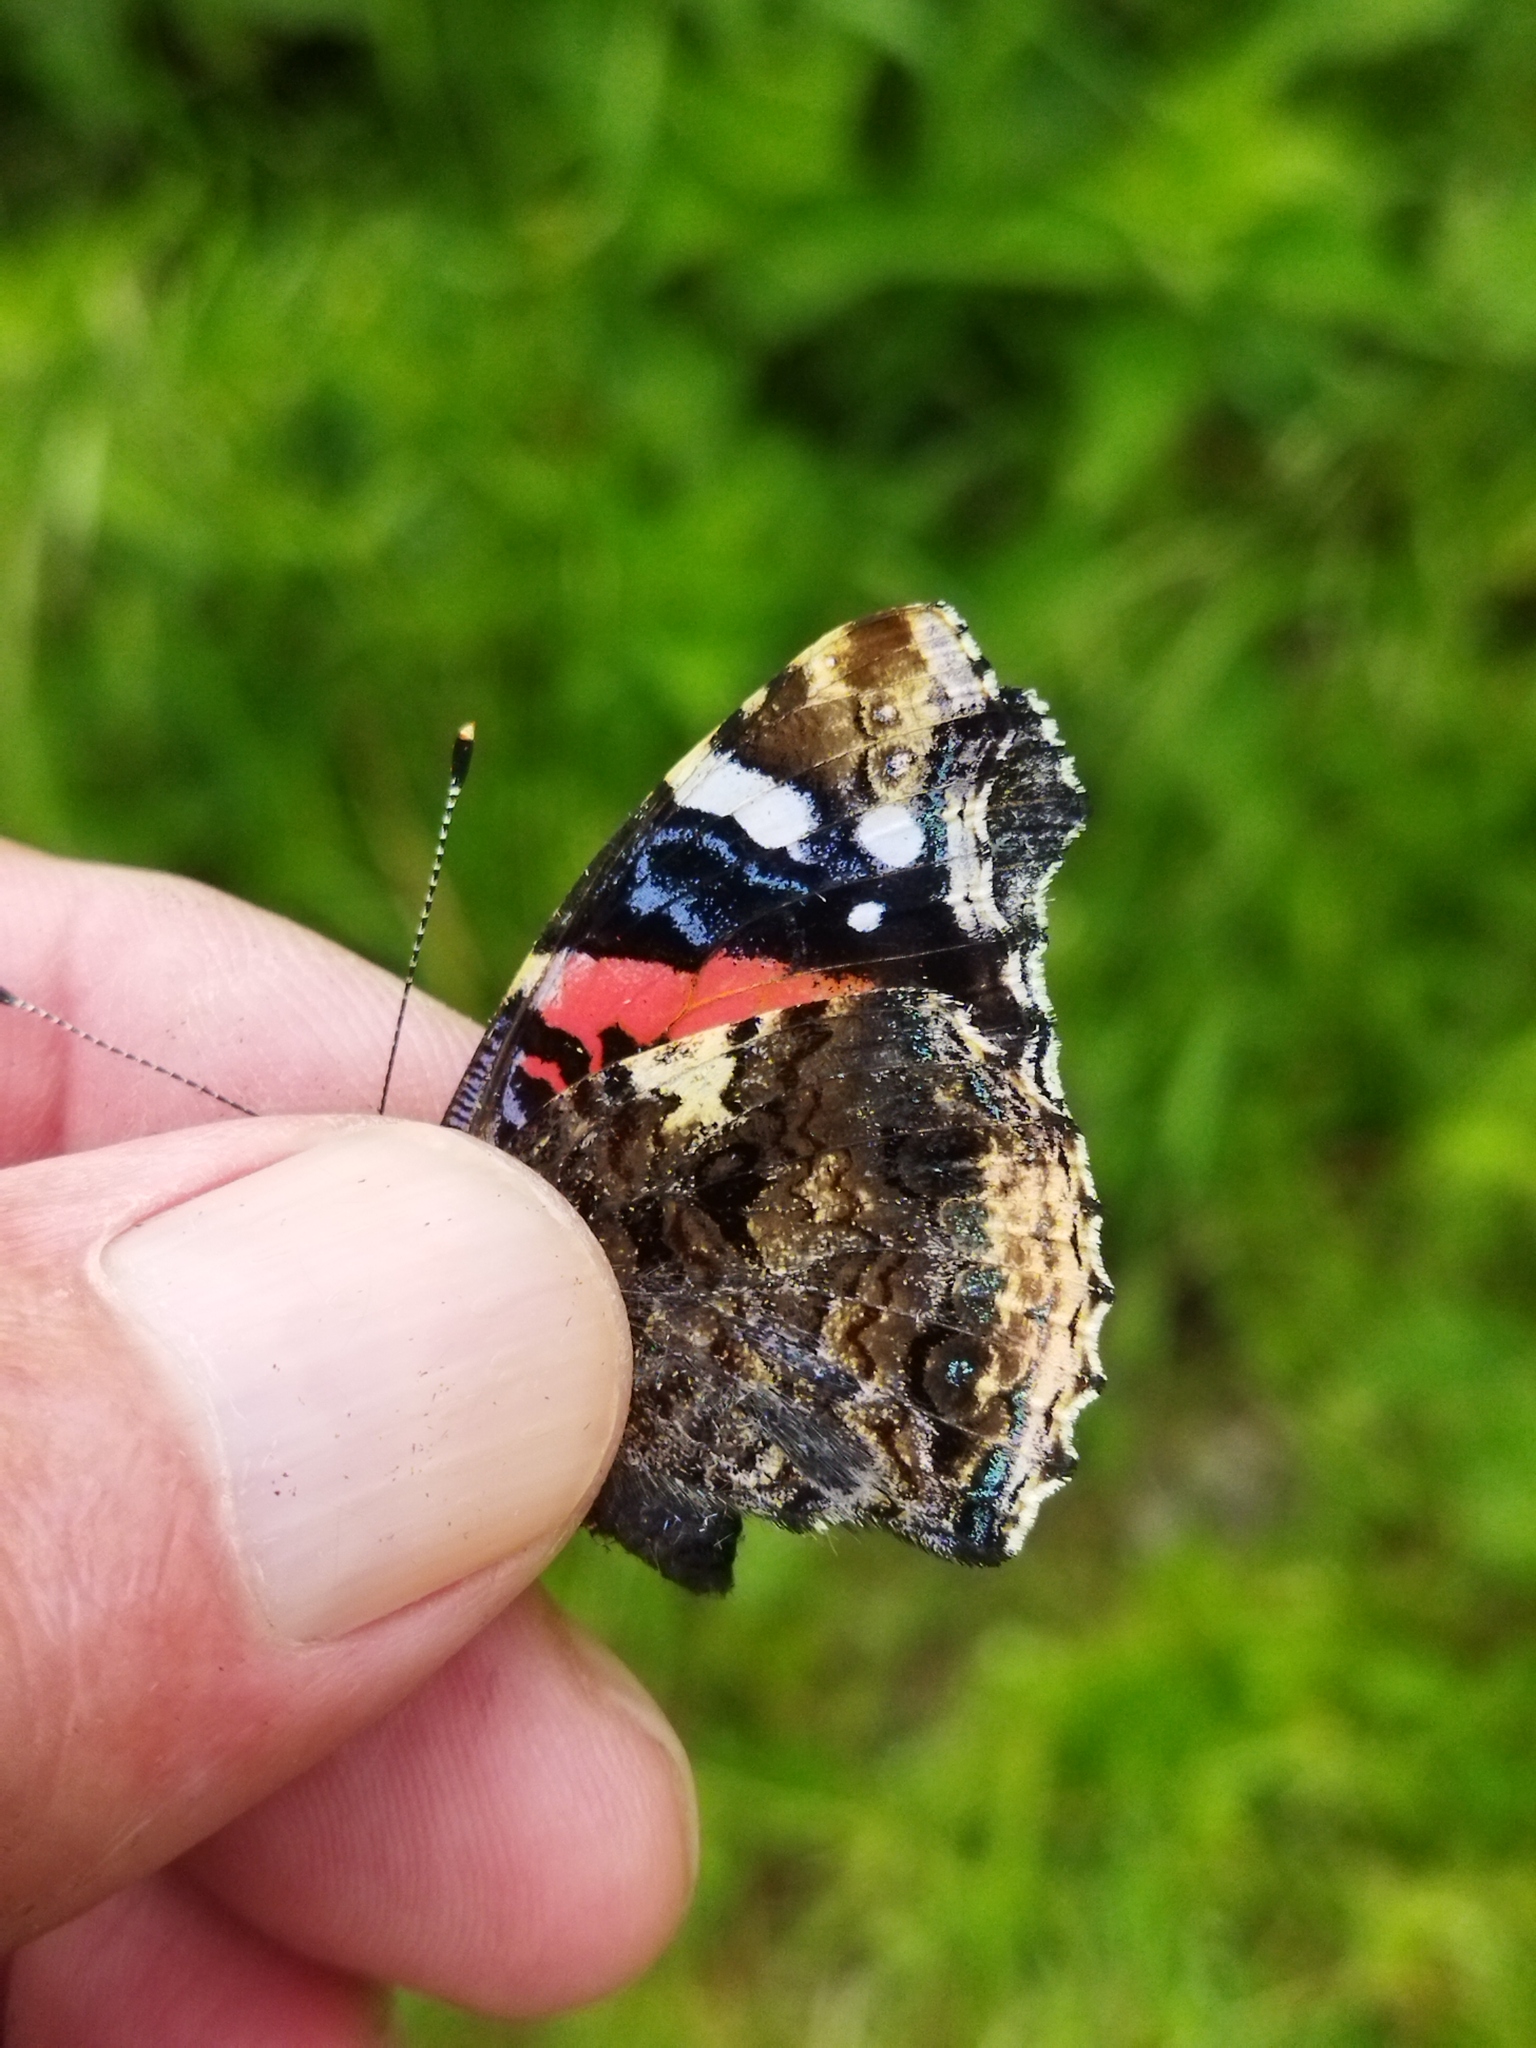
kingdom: Animalia
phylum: Arthropoda
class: Insecta
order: Lepidoptera
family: Nymphalidae
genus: Vanessa
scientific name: Vanessa atalanta
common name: Red admiral
